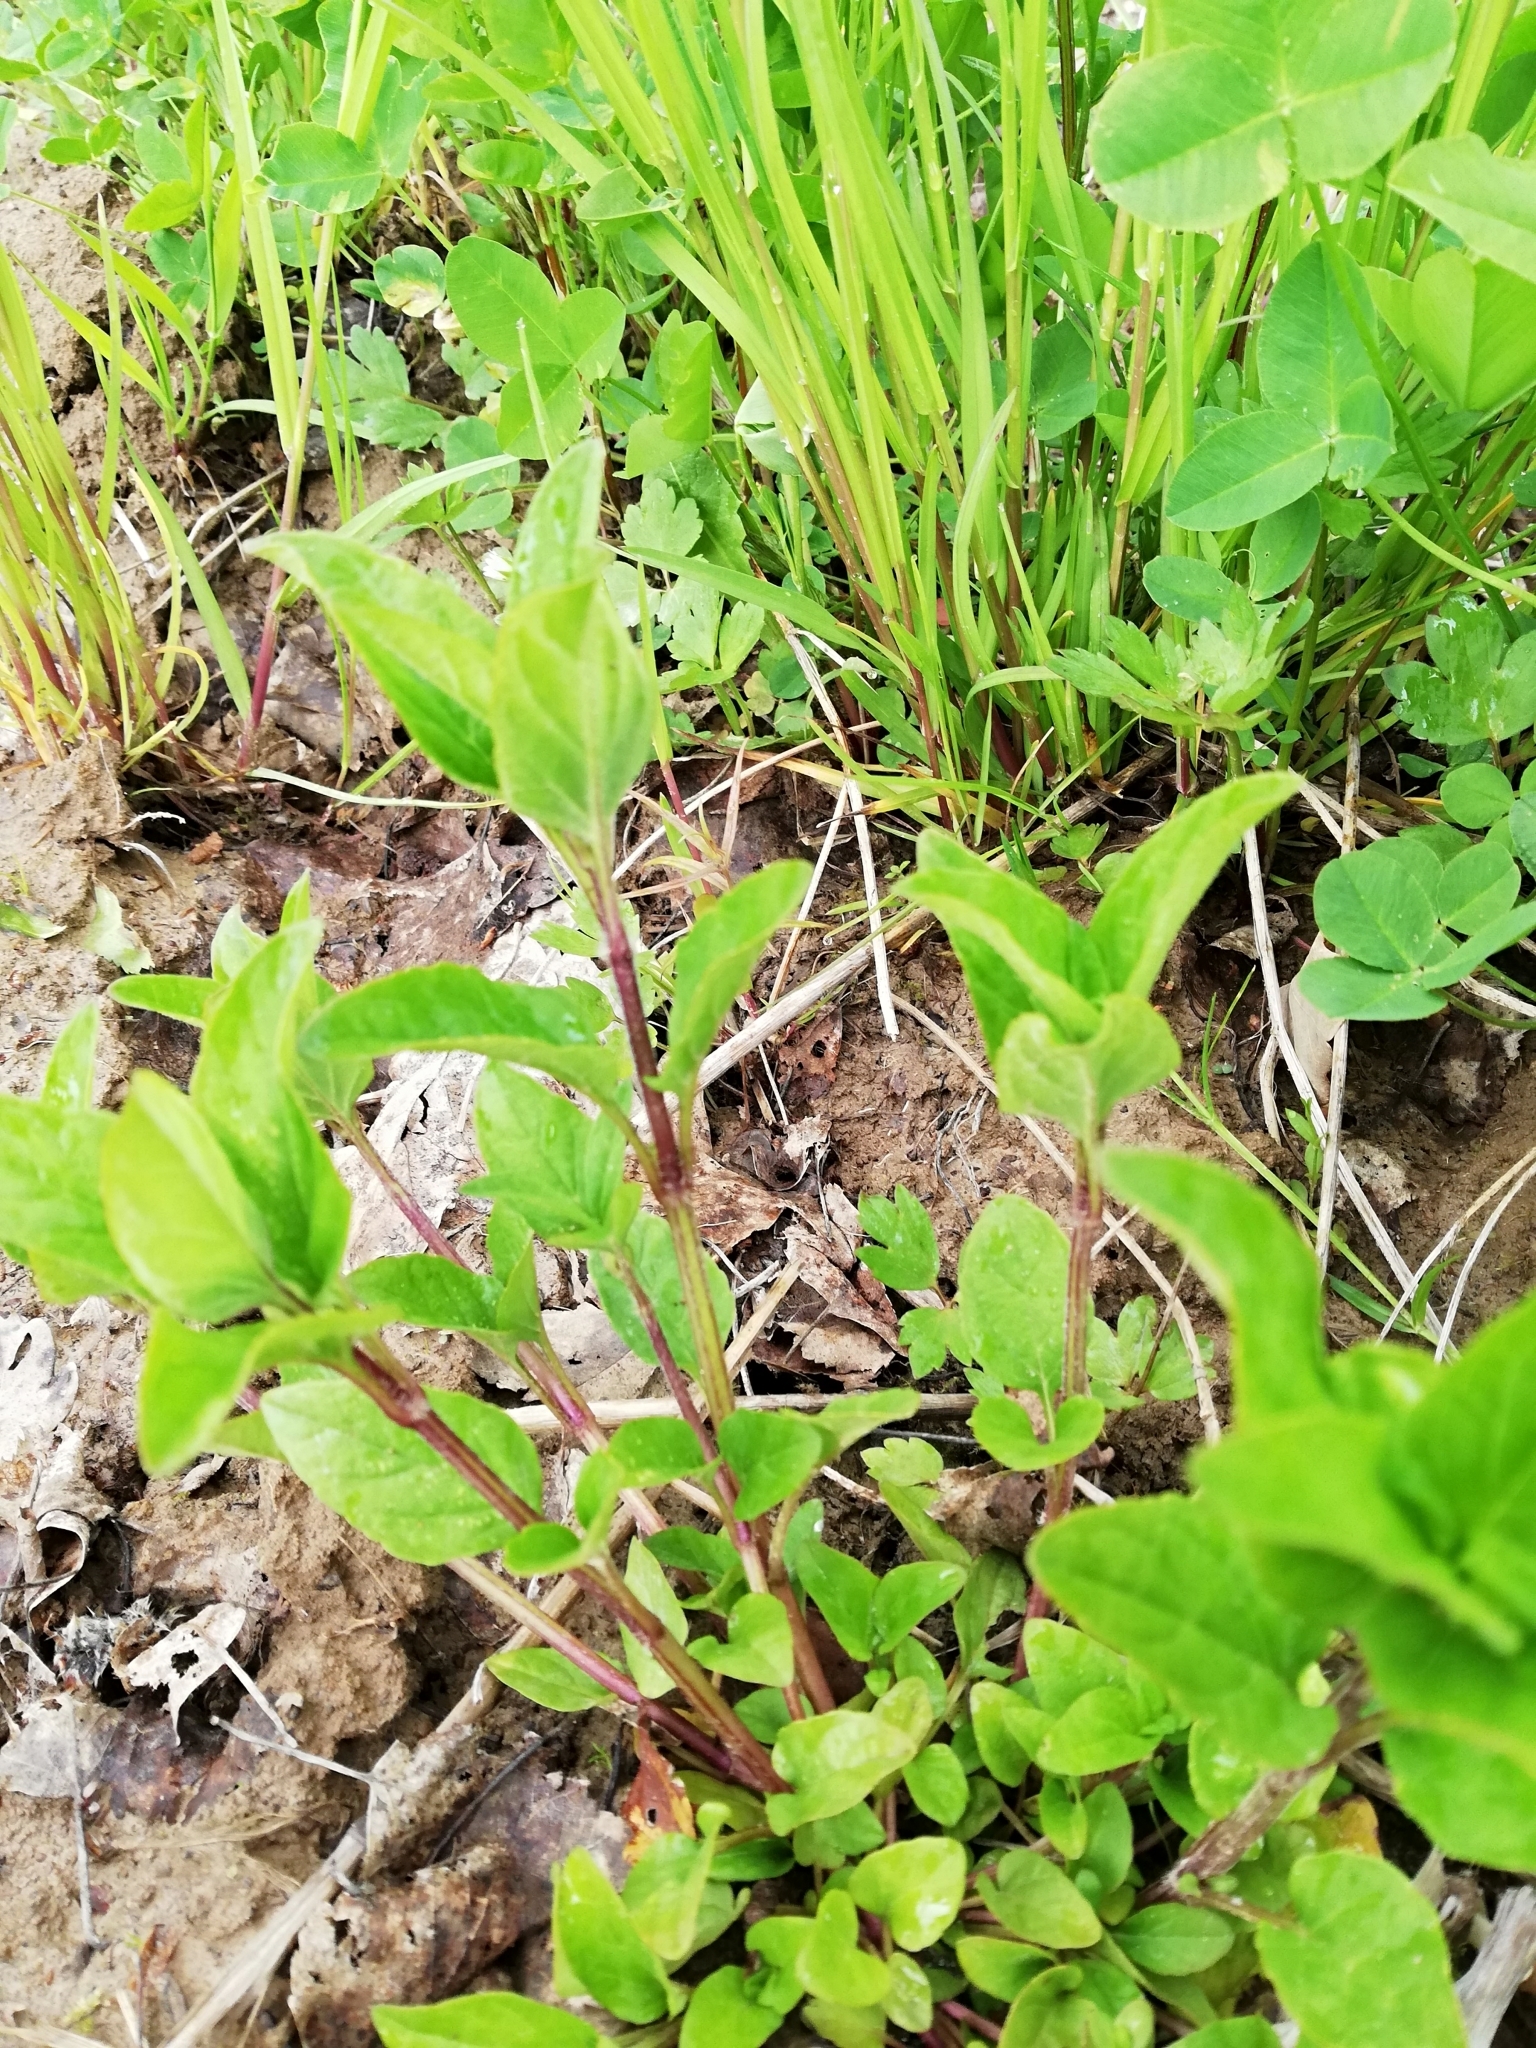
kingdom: Plantae
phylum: Tracheophyta
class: Magnoliopsida
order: Lamiales
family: Lamiaceae
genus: Prunella
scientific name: Prunella vulgaris
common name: Heal-all
